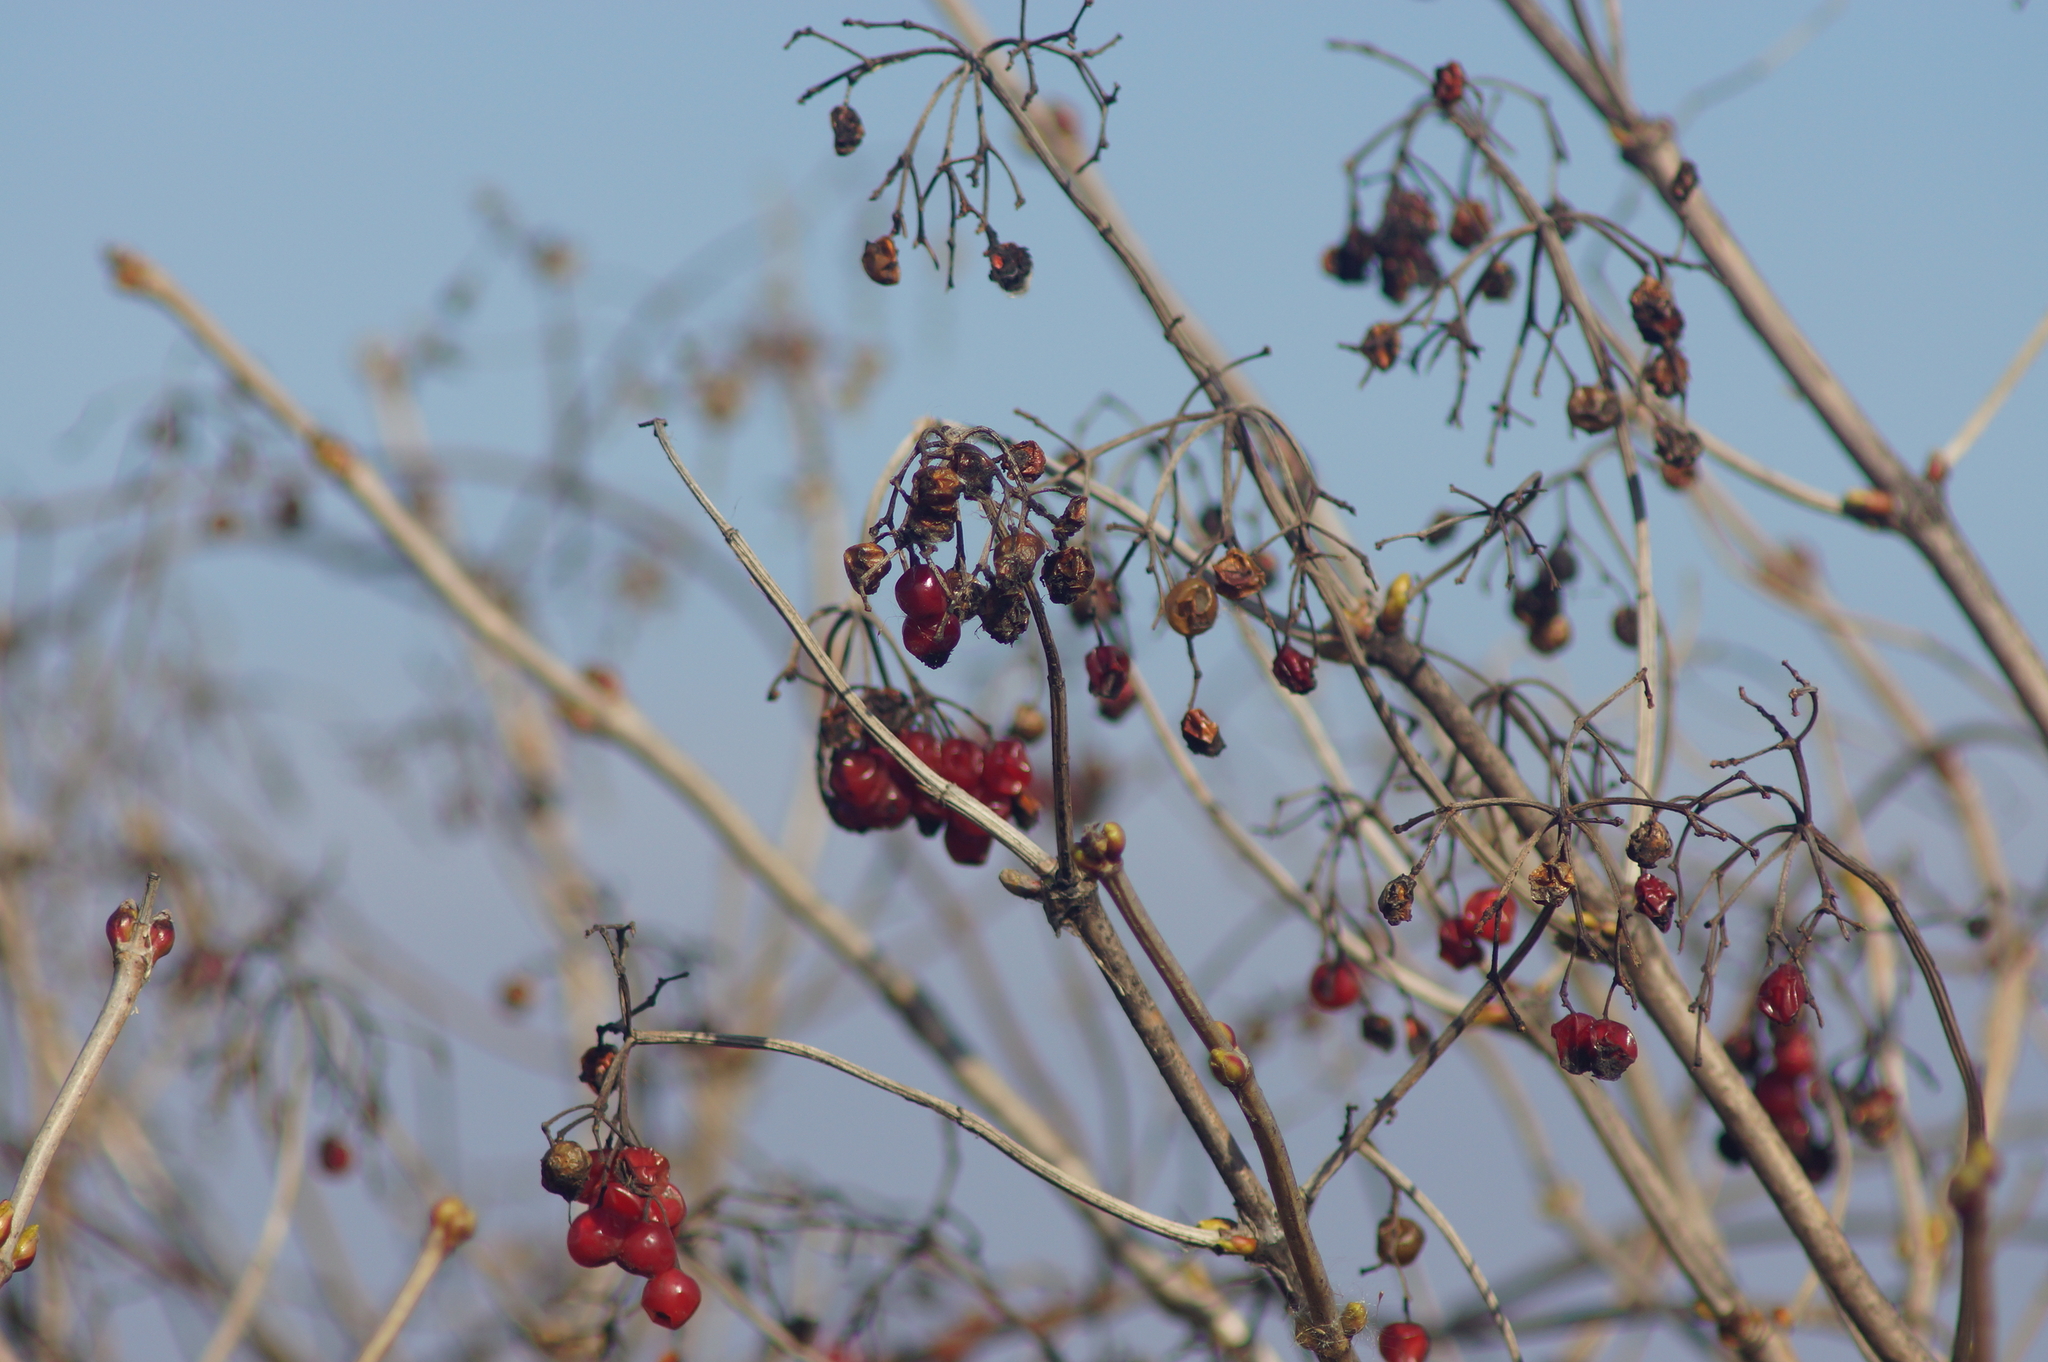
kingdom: Plantae
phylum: Tracheophyta
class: Magnoliopsida
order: Dipsacales
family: Viburnaceae
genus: Viburnum
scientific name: Viburnum opulus
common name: Guelder-rose
